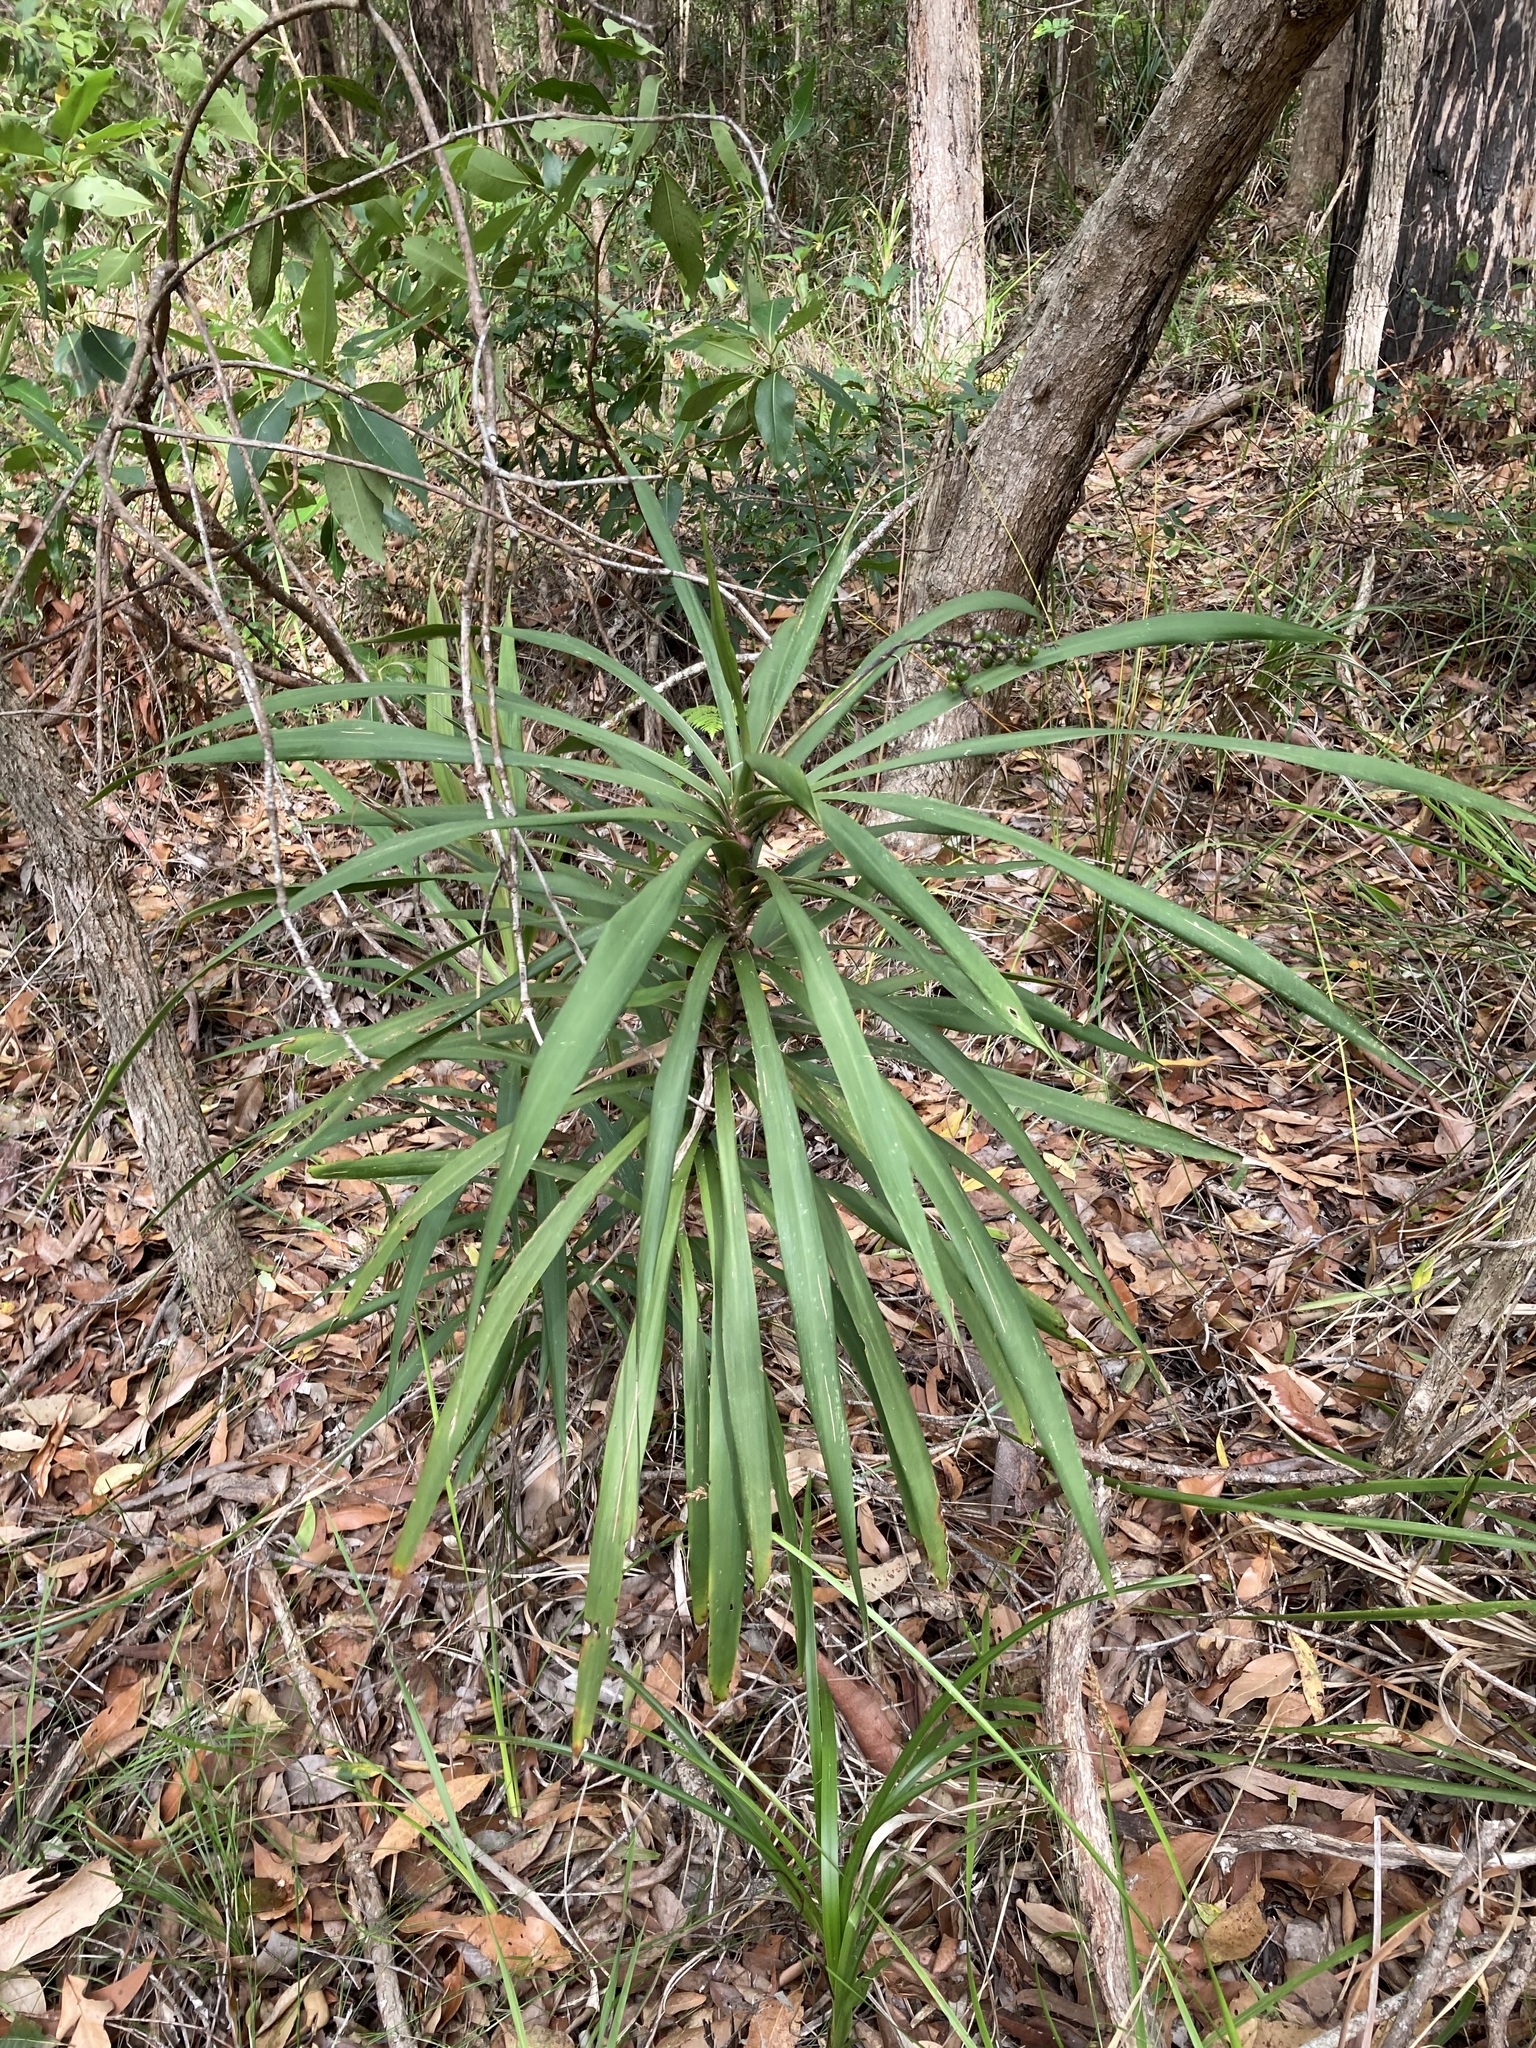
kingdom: Plantae
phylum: Tracheophyta
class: Liliopsida
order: Asparagales
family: Asparagaceae
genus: Cordyline
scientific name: Cordyline stricta
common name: Narrow-leaf palm-lily
